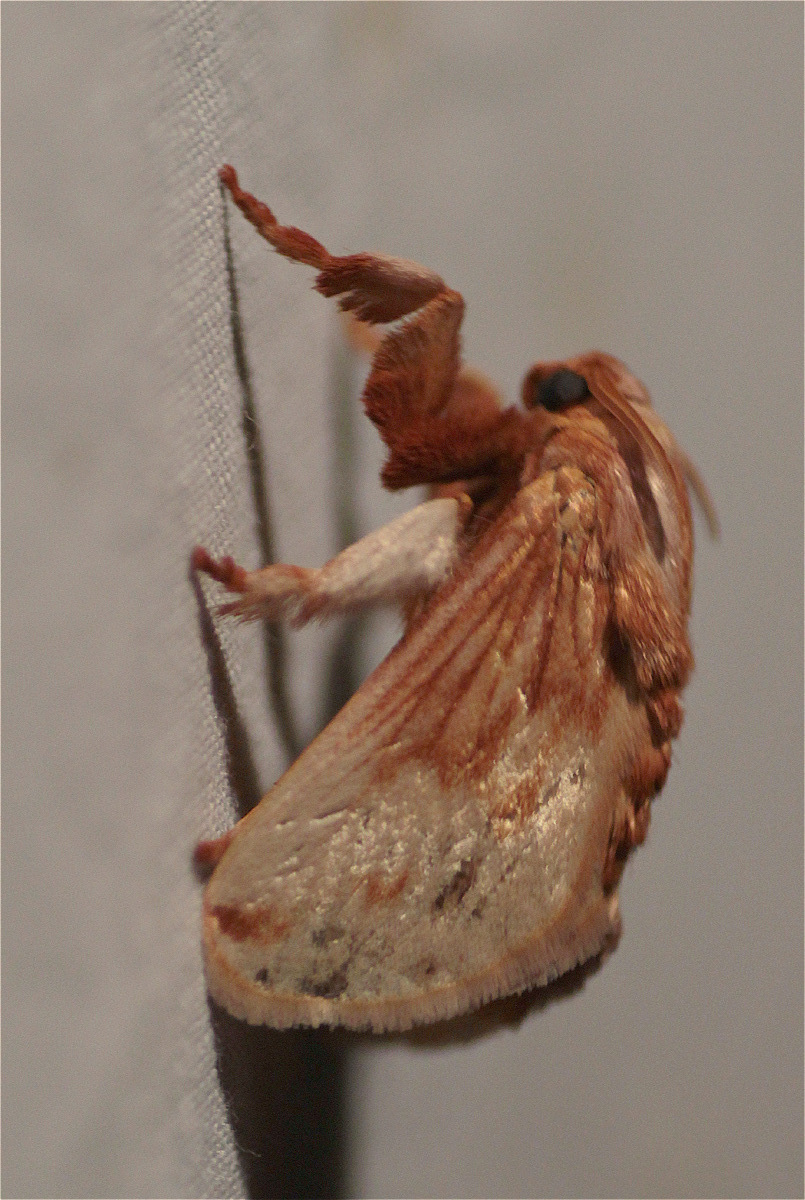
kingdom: Animalia
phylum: Arthropoda
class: Insecta
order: Lepidoptera
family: Limacodidae
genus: Perola
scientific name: Perola sericea
